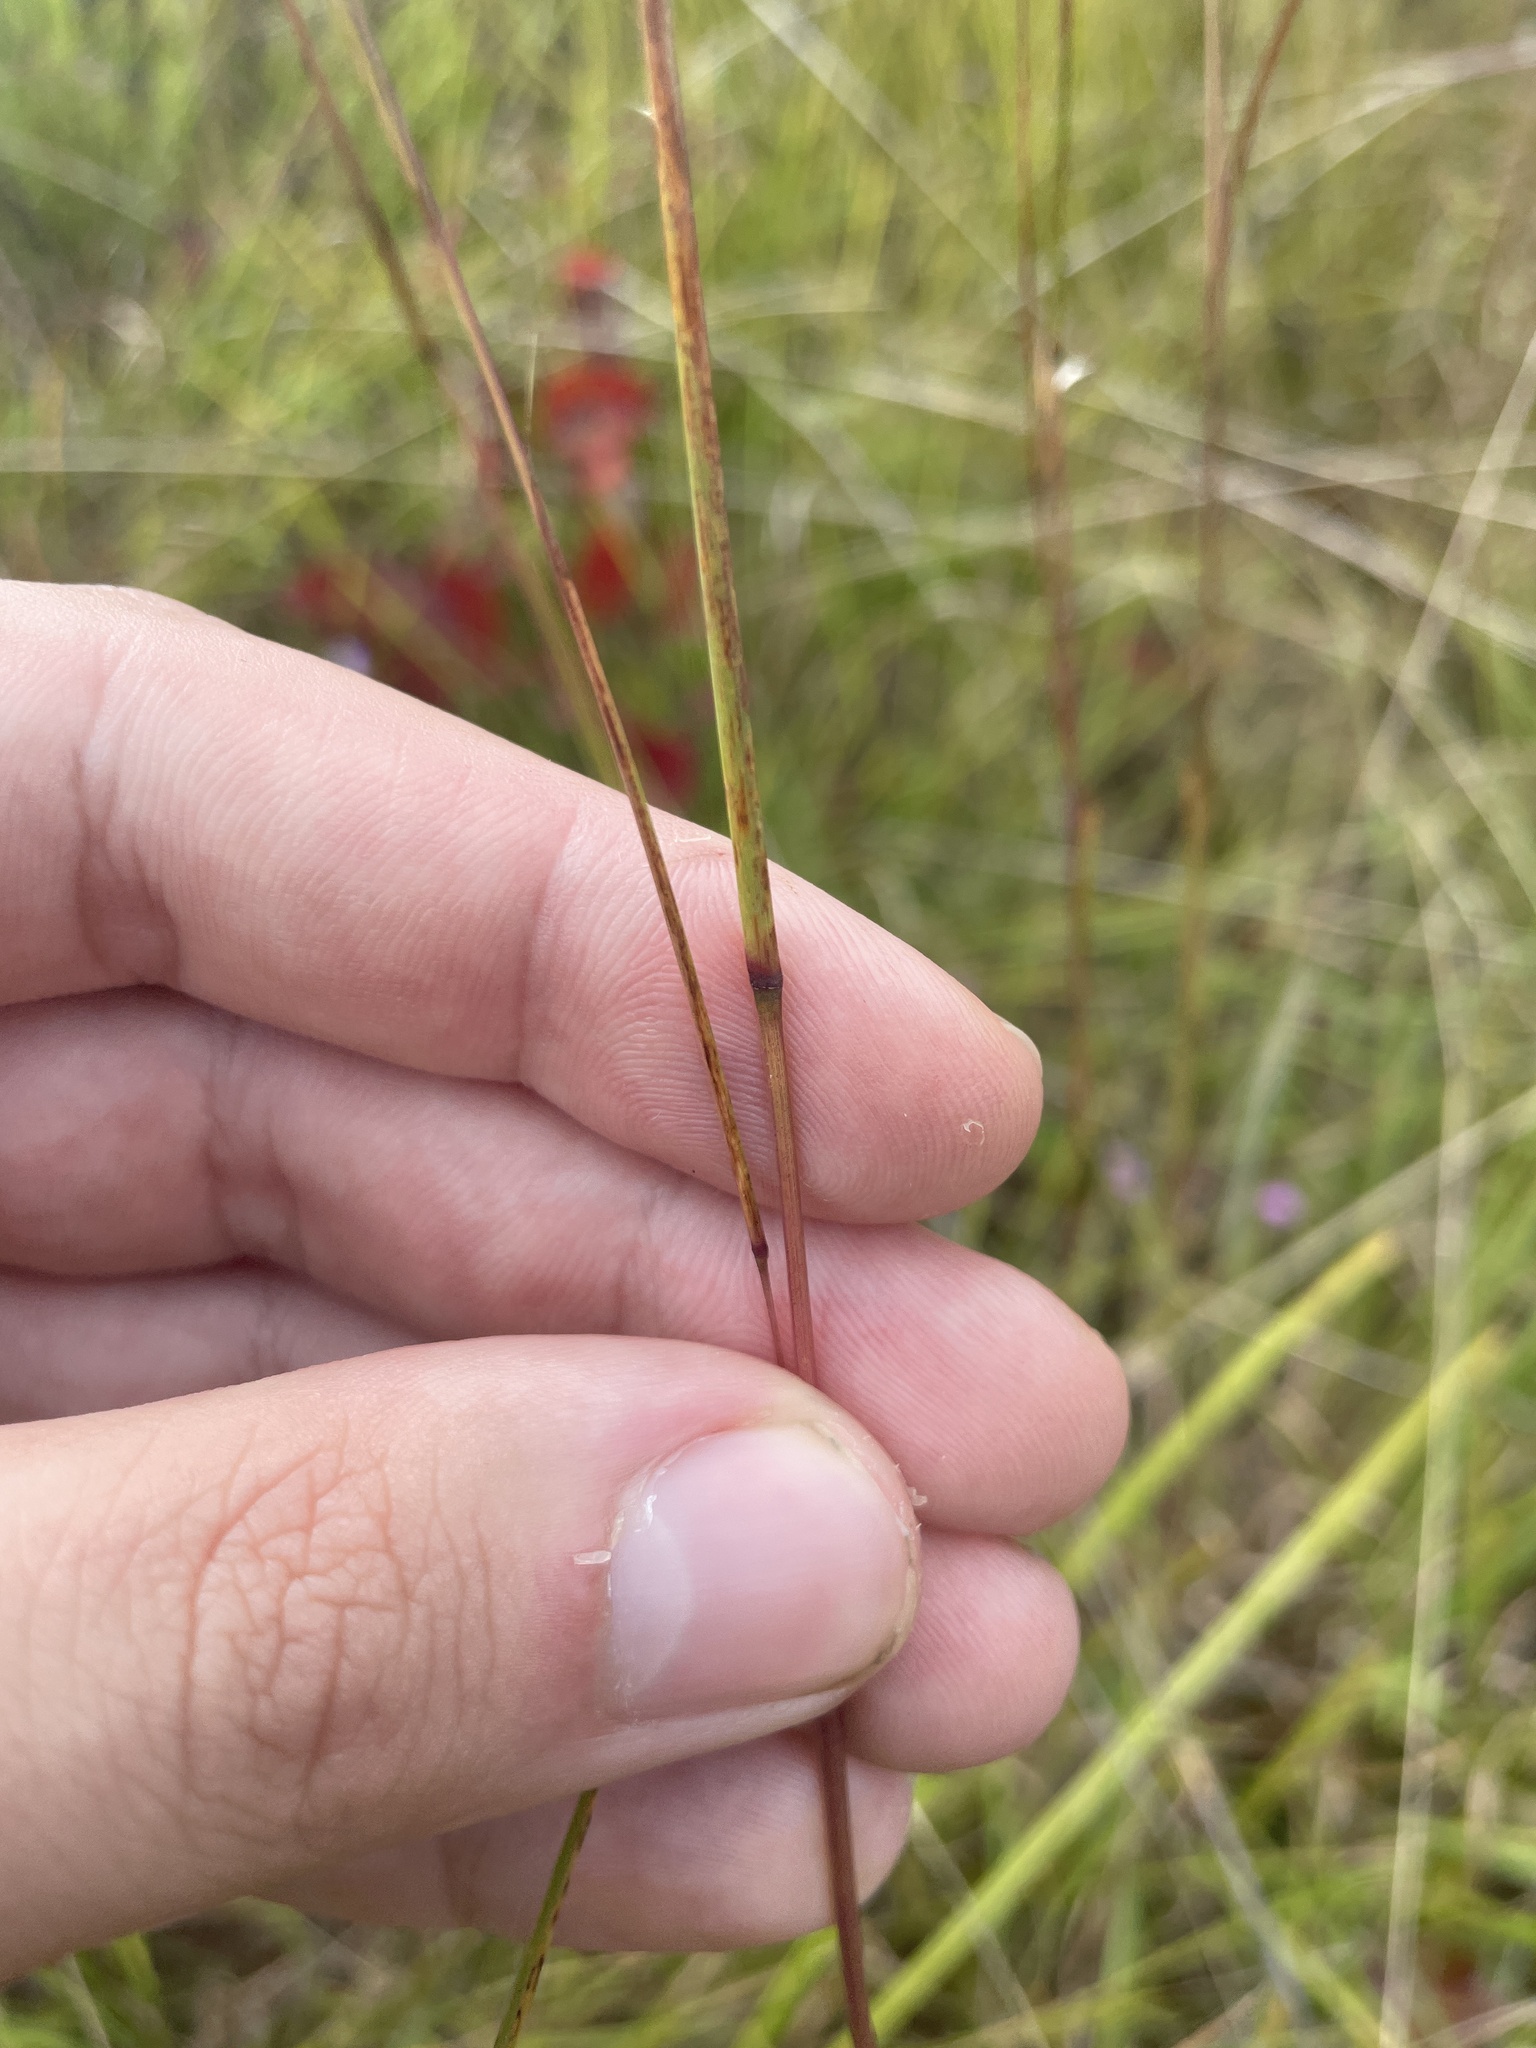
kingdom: Plantae
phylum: Tracheophyta
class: Liliopsida
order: Poales
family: Poaceae
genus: Schizachyrium
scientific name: Schizachyrium scoparium
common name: Little bluestem
